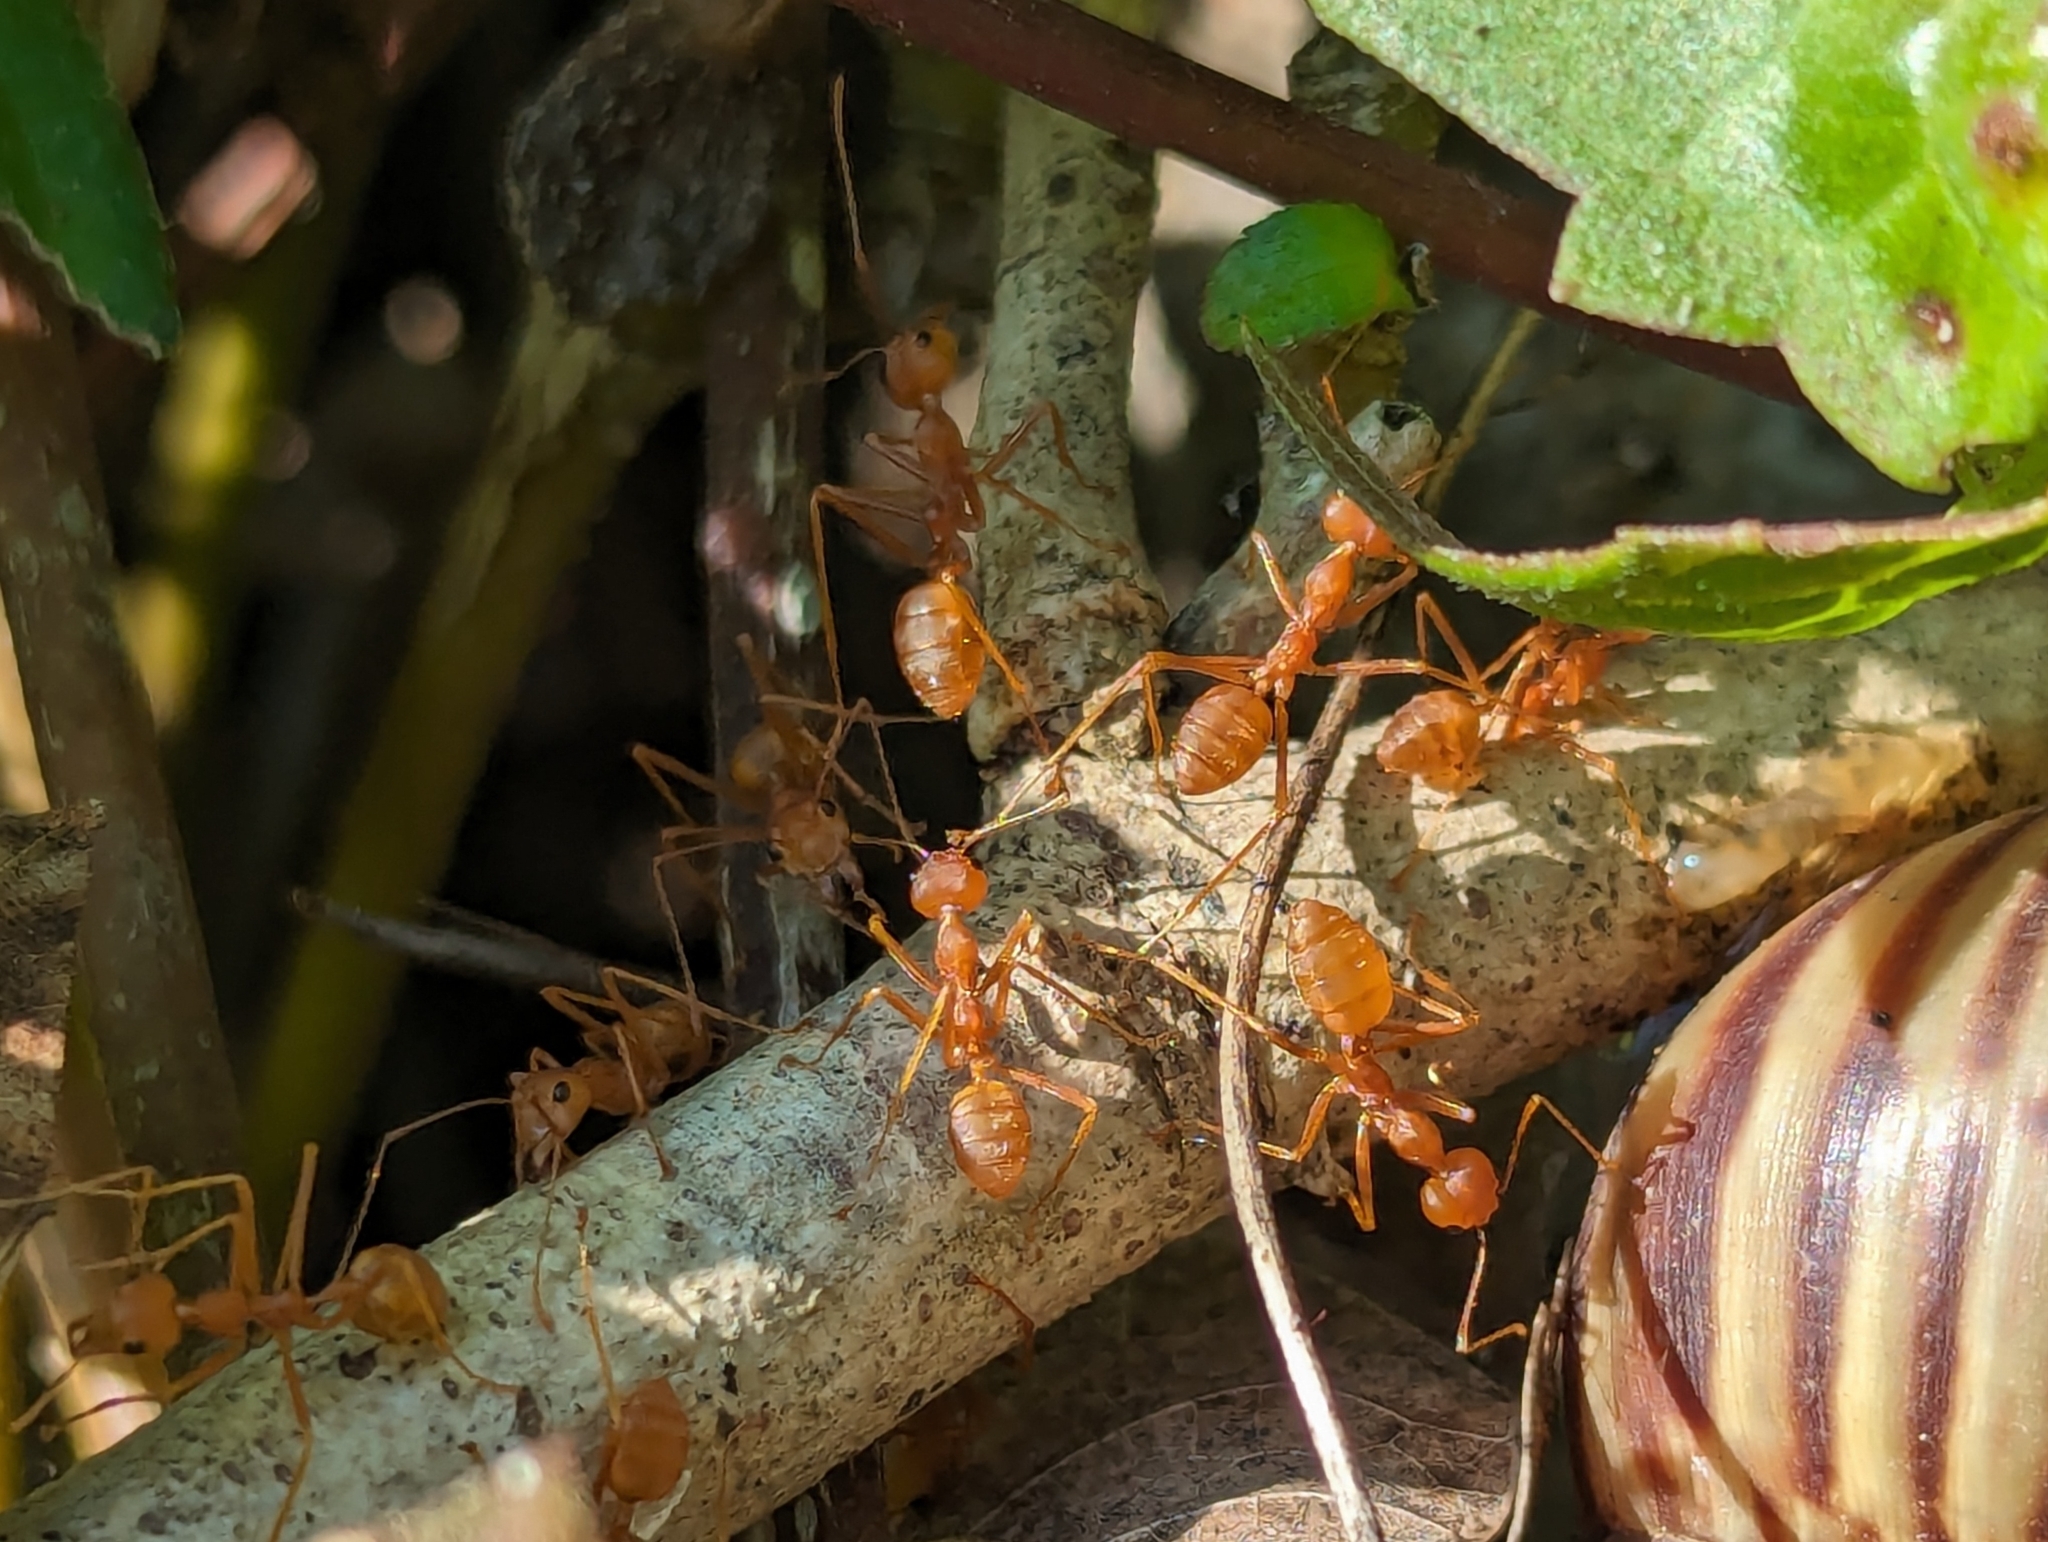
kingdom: Animalia
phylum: Arthropoda
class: Insecta
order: Hymenoptera
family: Formicidae
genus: Oecophylla
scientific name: Oecophylla smaragdina
